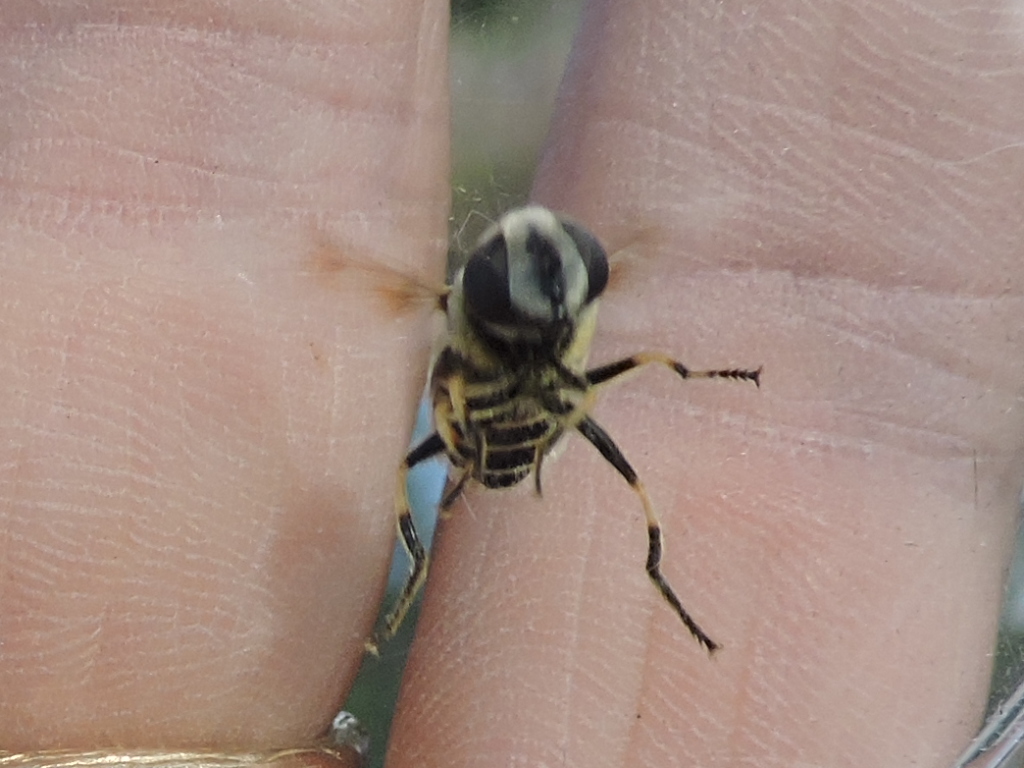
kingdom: Animalia
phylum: Arthropoda
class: Insecta
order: Diptera
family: Syrphidae
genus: Eristalis
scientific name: Eristalis stipator
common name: Yellow-shouldered drone fly
